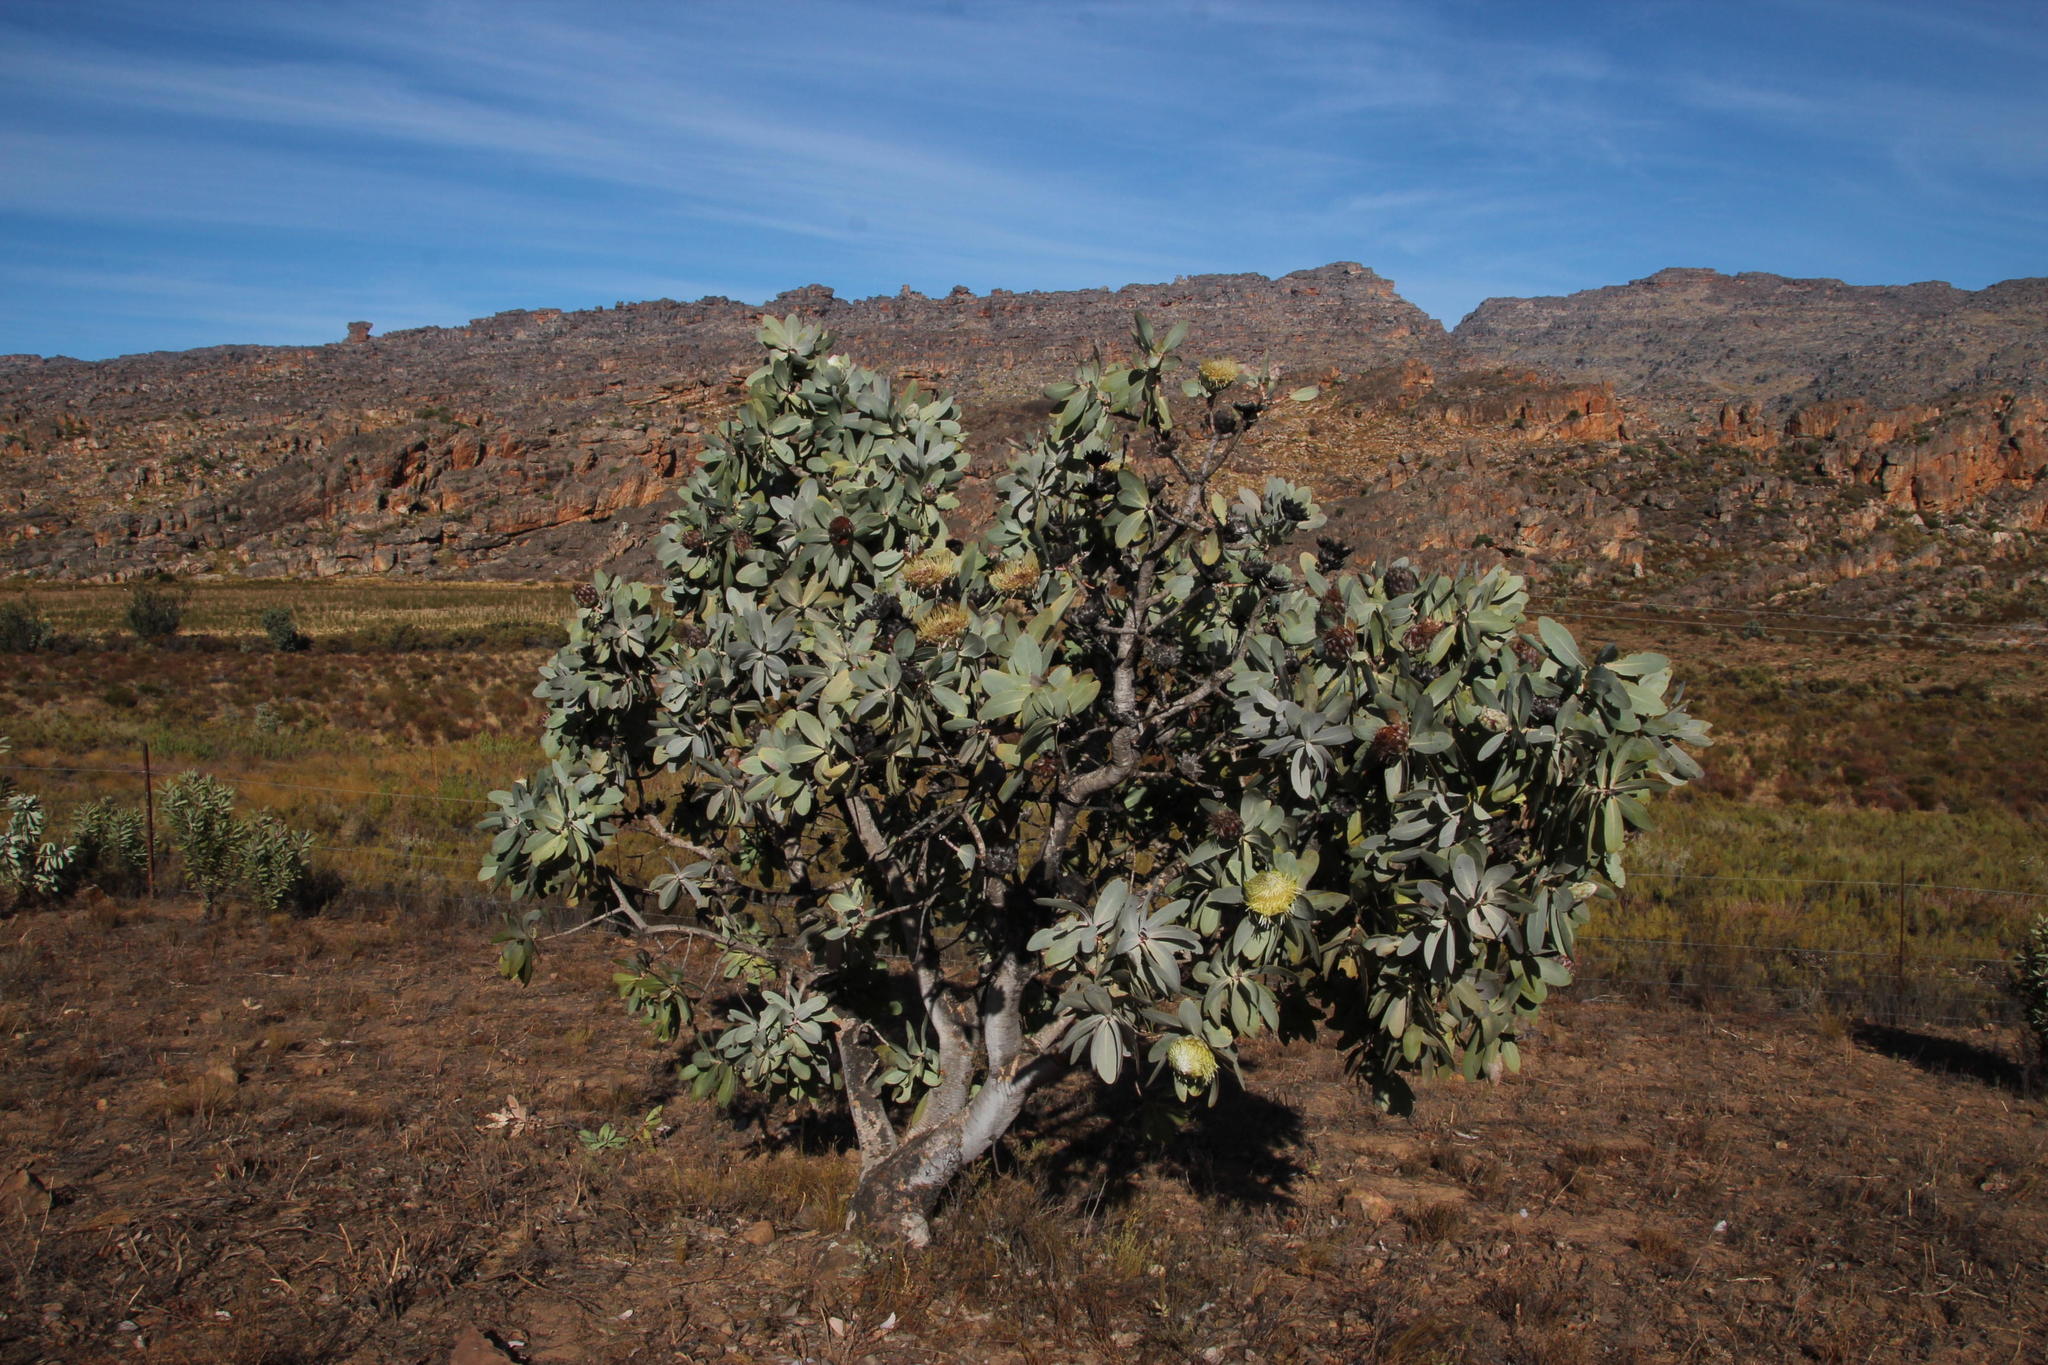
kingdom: Plantae
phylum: Tracheophyta
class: Magnoliopsida
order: Proteales
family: Proteaceae
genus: Protea
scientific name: Protea nitida
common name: Tree protea
